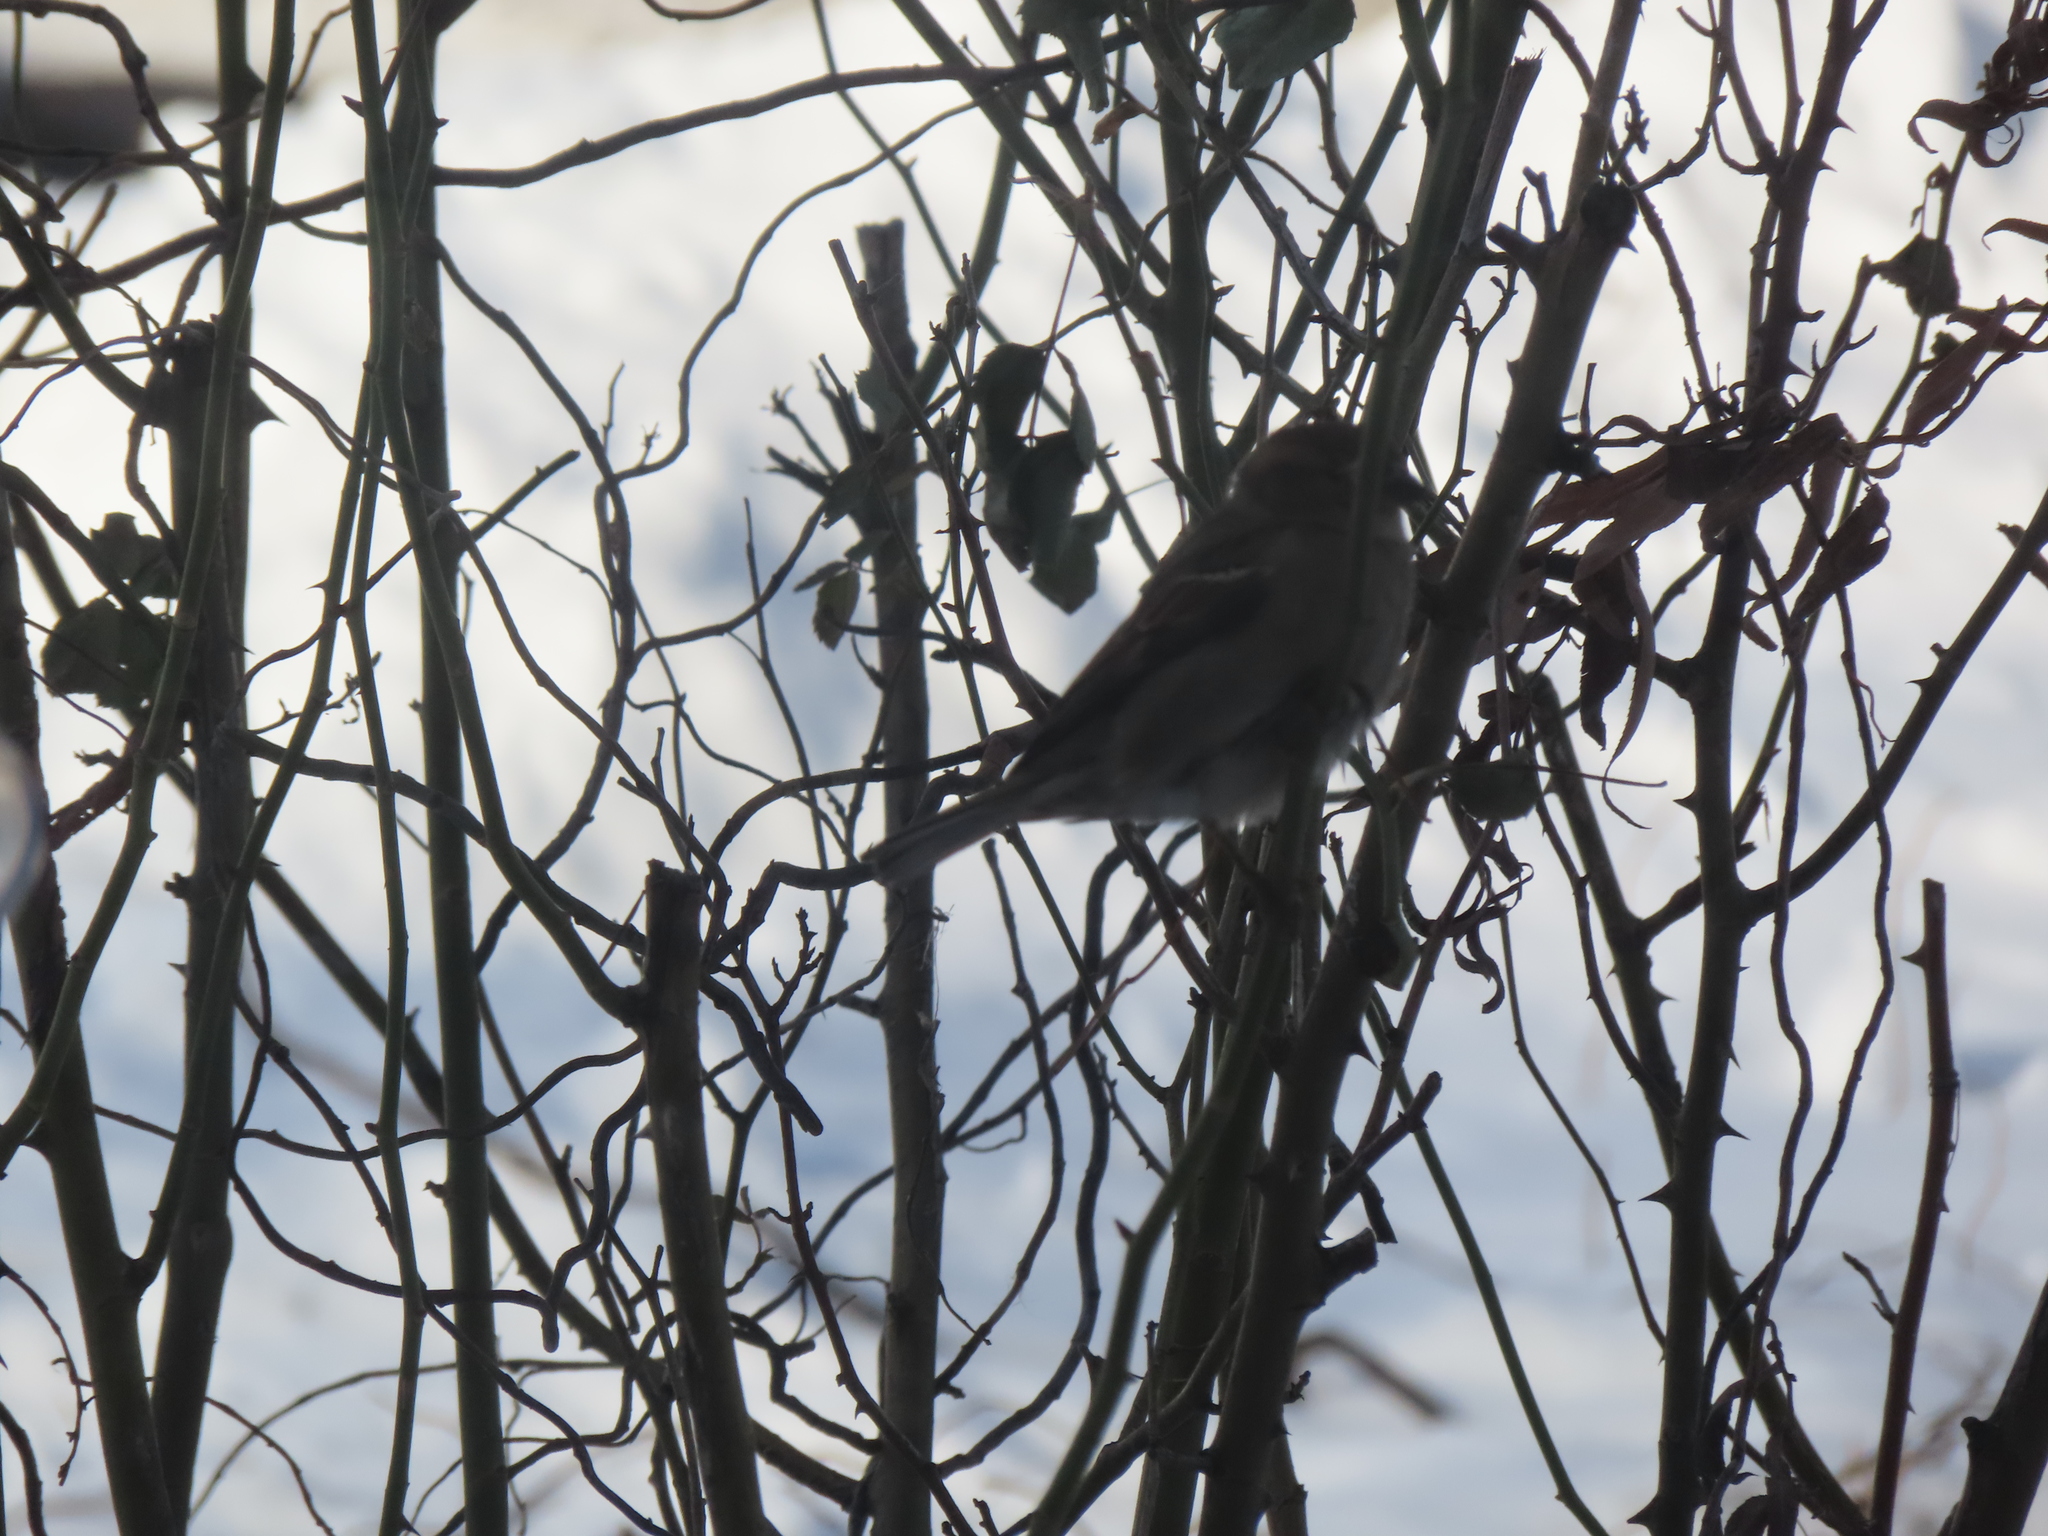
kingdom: Animalia
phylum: Chordata
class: Aves
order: Passeriformes
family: Passeridae
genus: Passer
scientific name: Passer domesticus
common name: House sparrow
